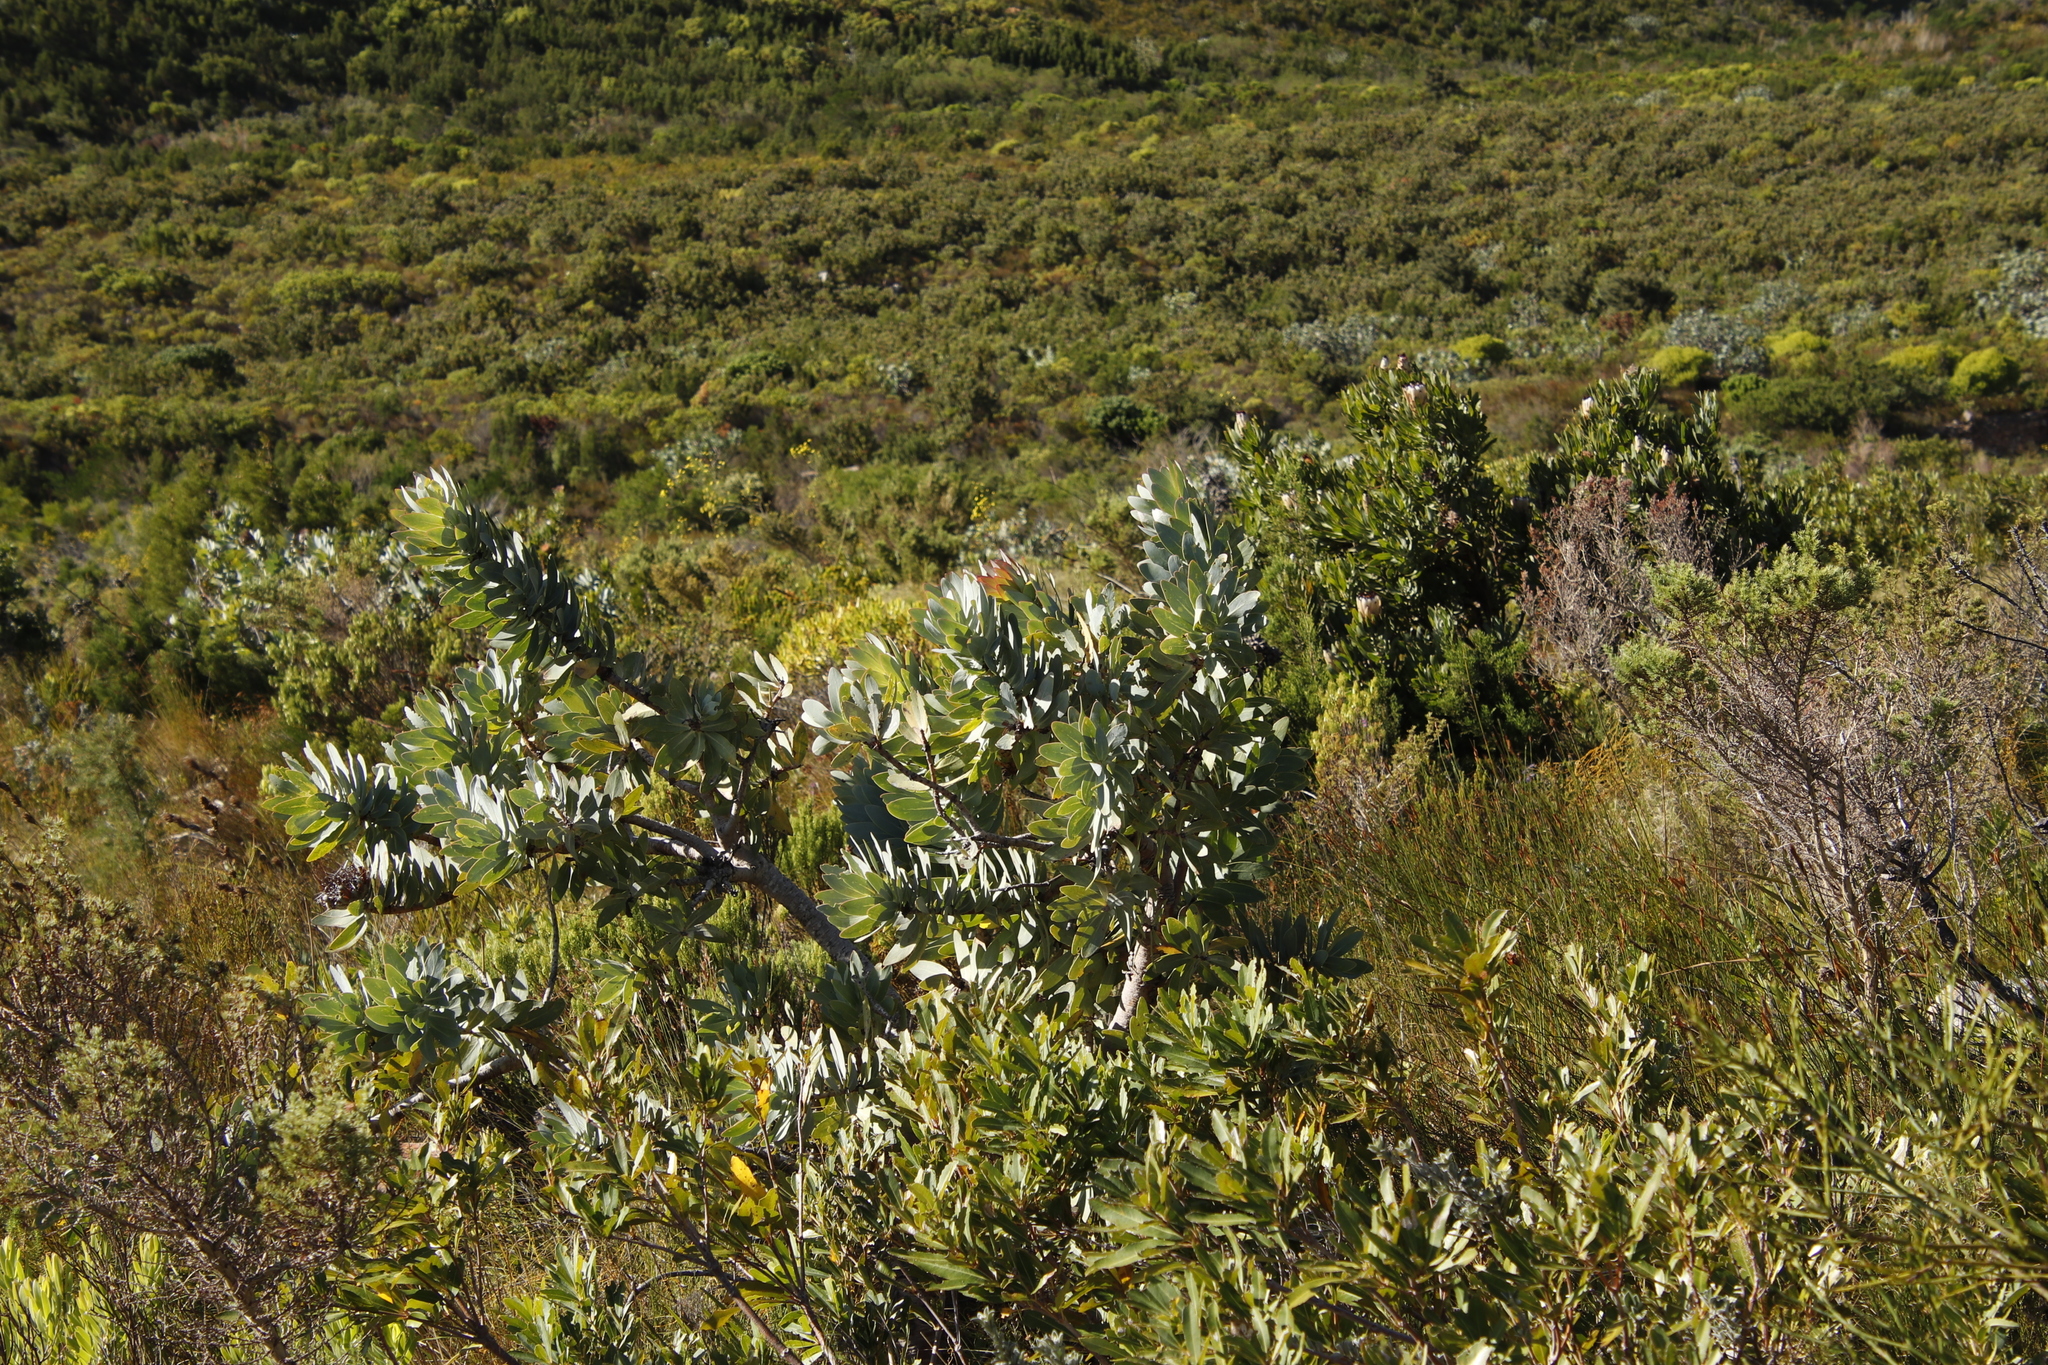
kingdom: Plantae
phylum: Tracheophyta
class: Magnoliopsida
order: Proteales
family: Proteaceae
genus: Protea
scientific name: Protea nitida
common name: Tree protea
